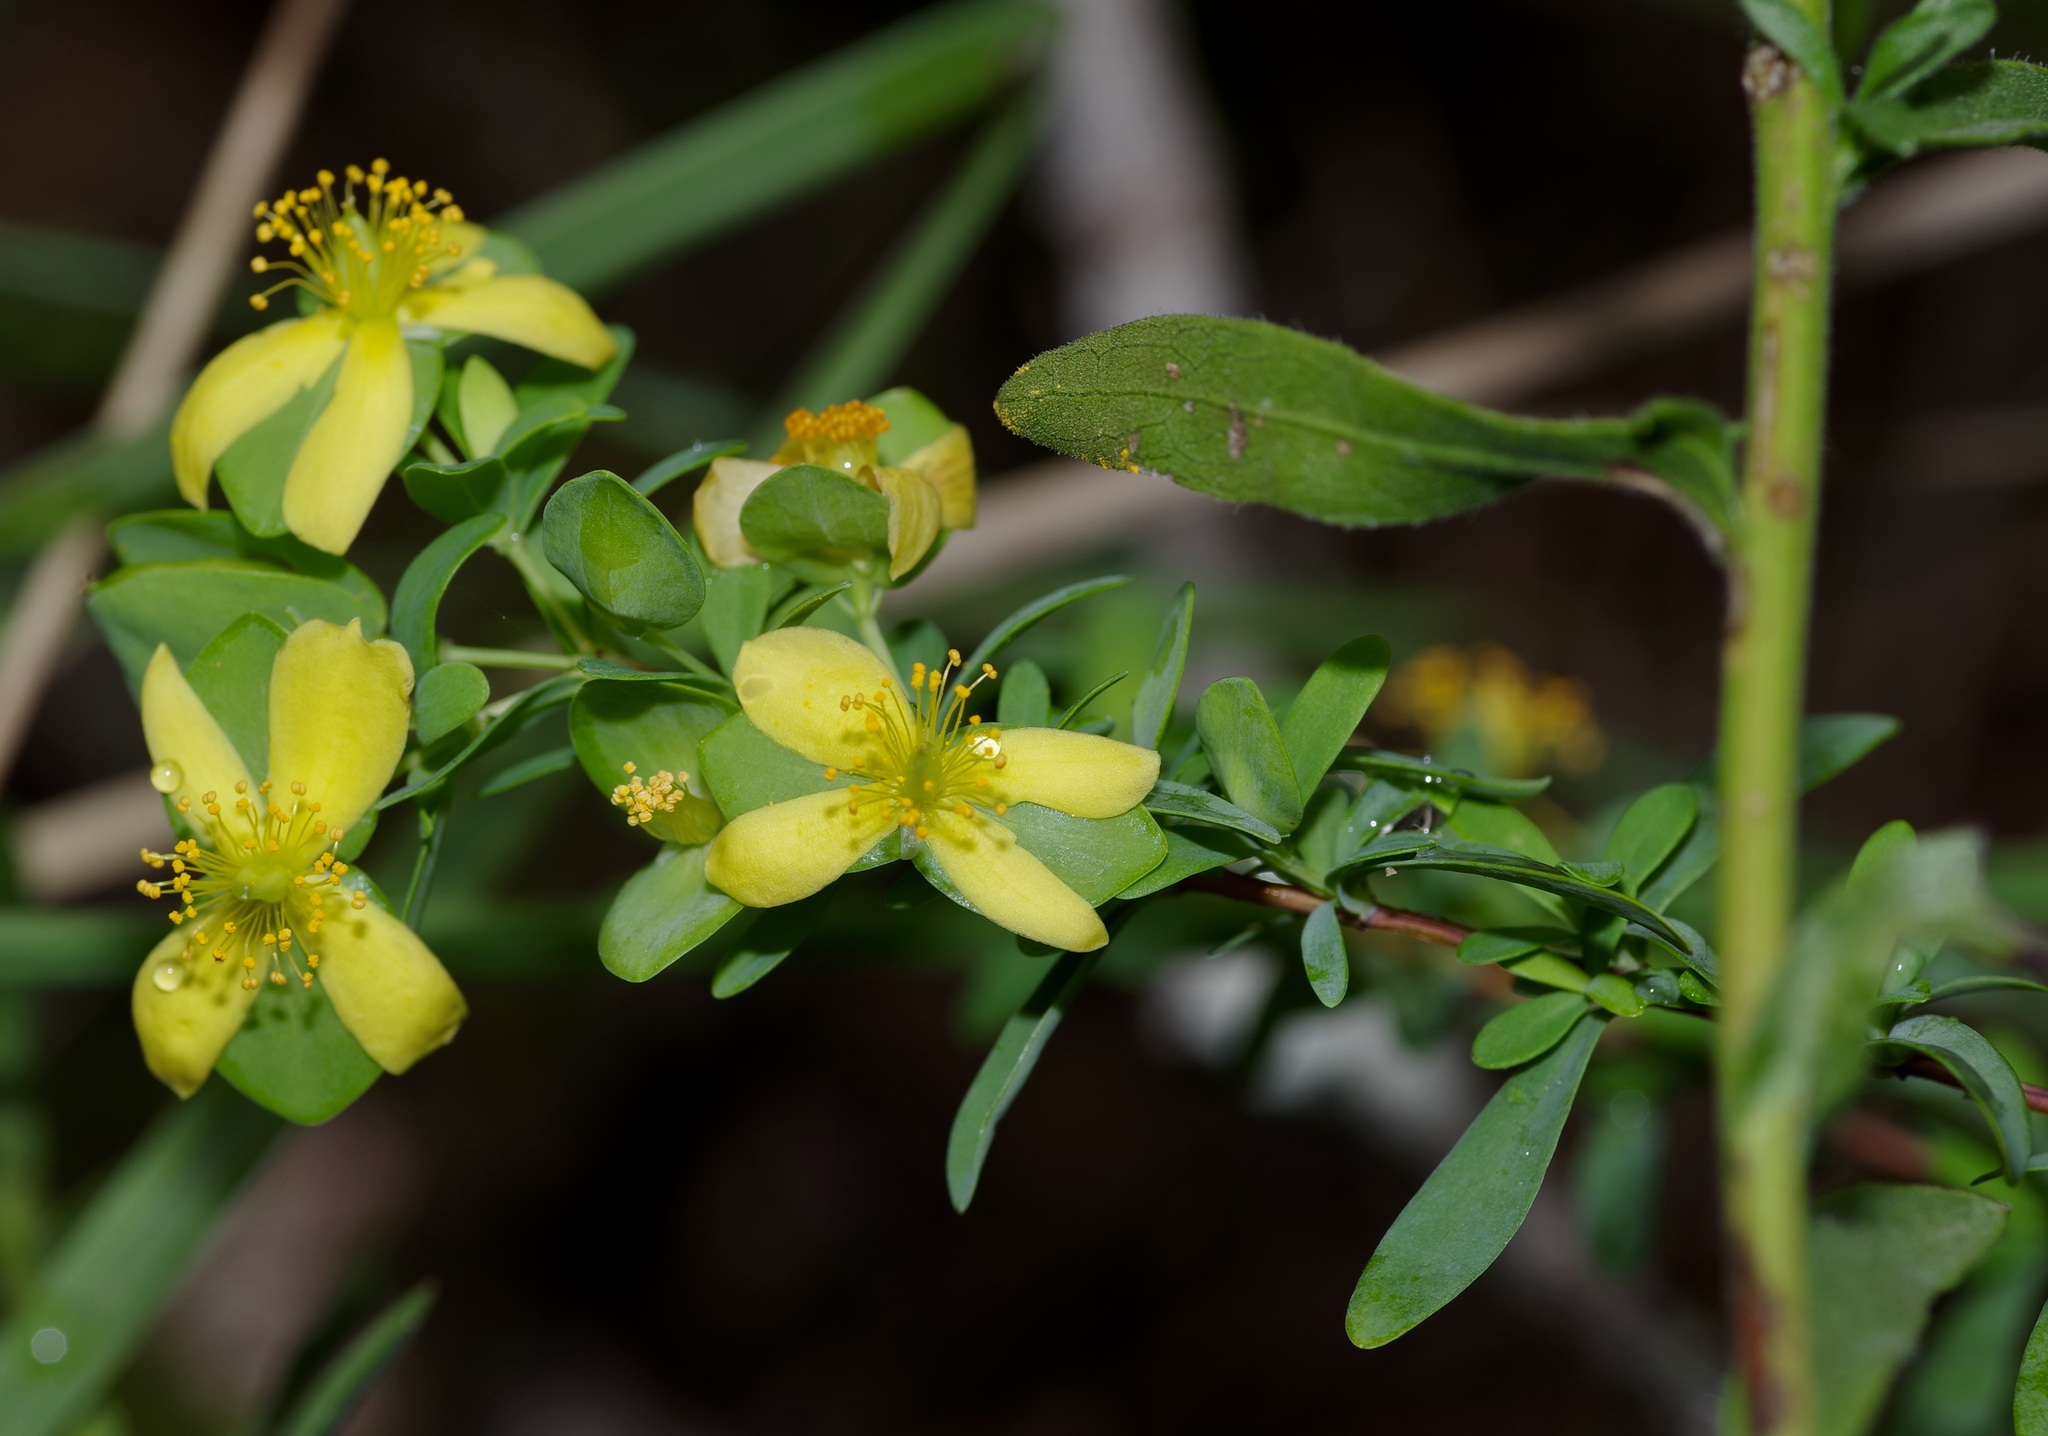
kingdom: Plantae
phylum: Tracheophyta
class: Magnoliopsida
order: Malpighiales
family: Hypericaceae
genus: Hypericum
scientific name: Hypericum hypericoides
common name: St. andrew's cross
